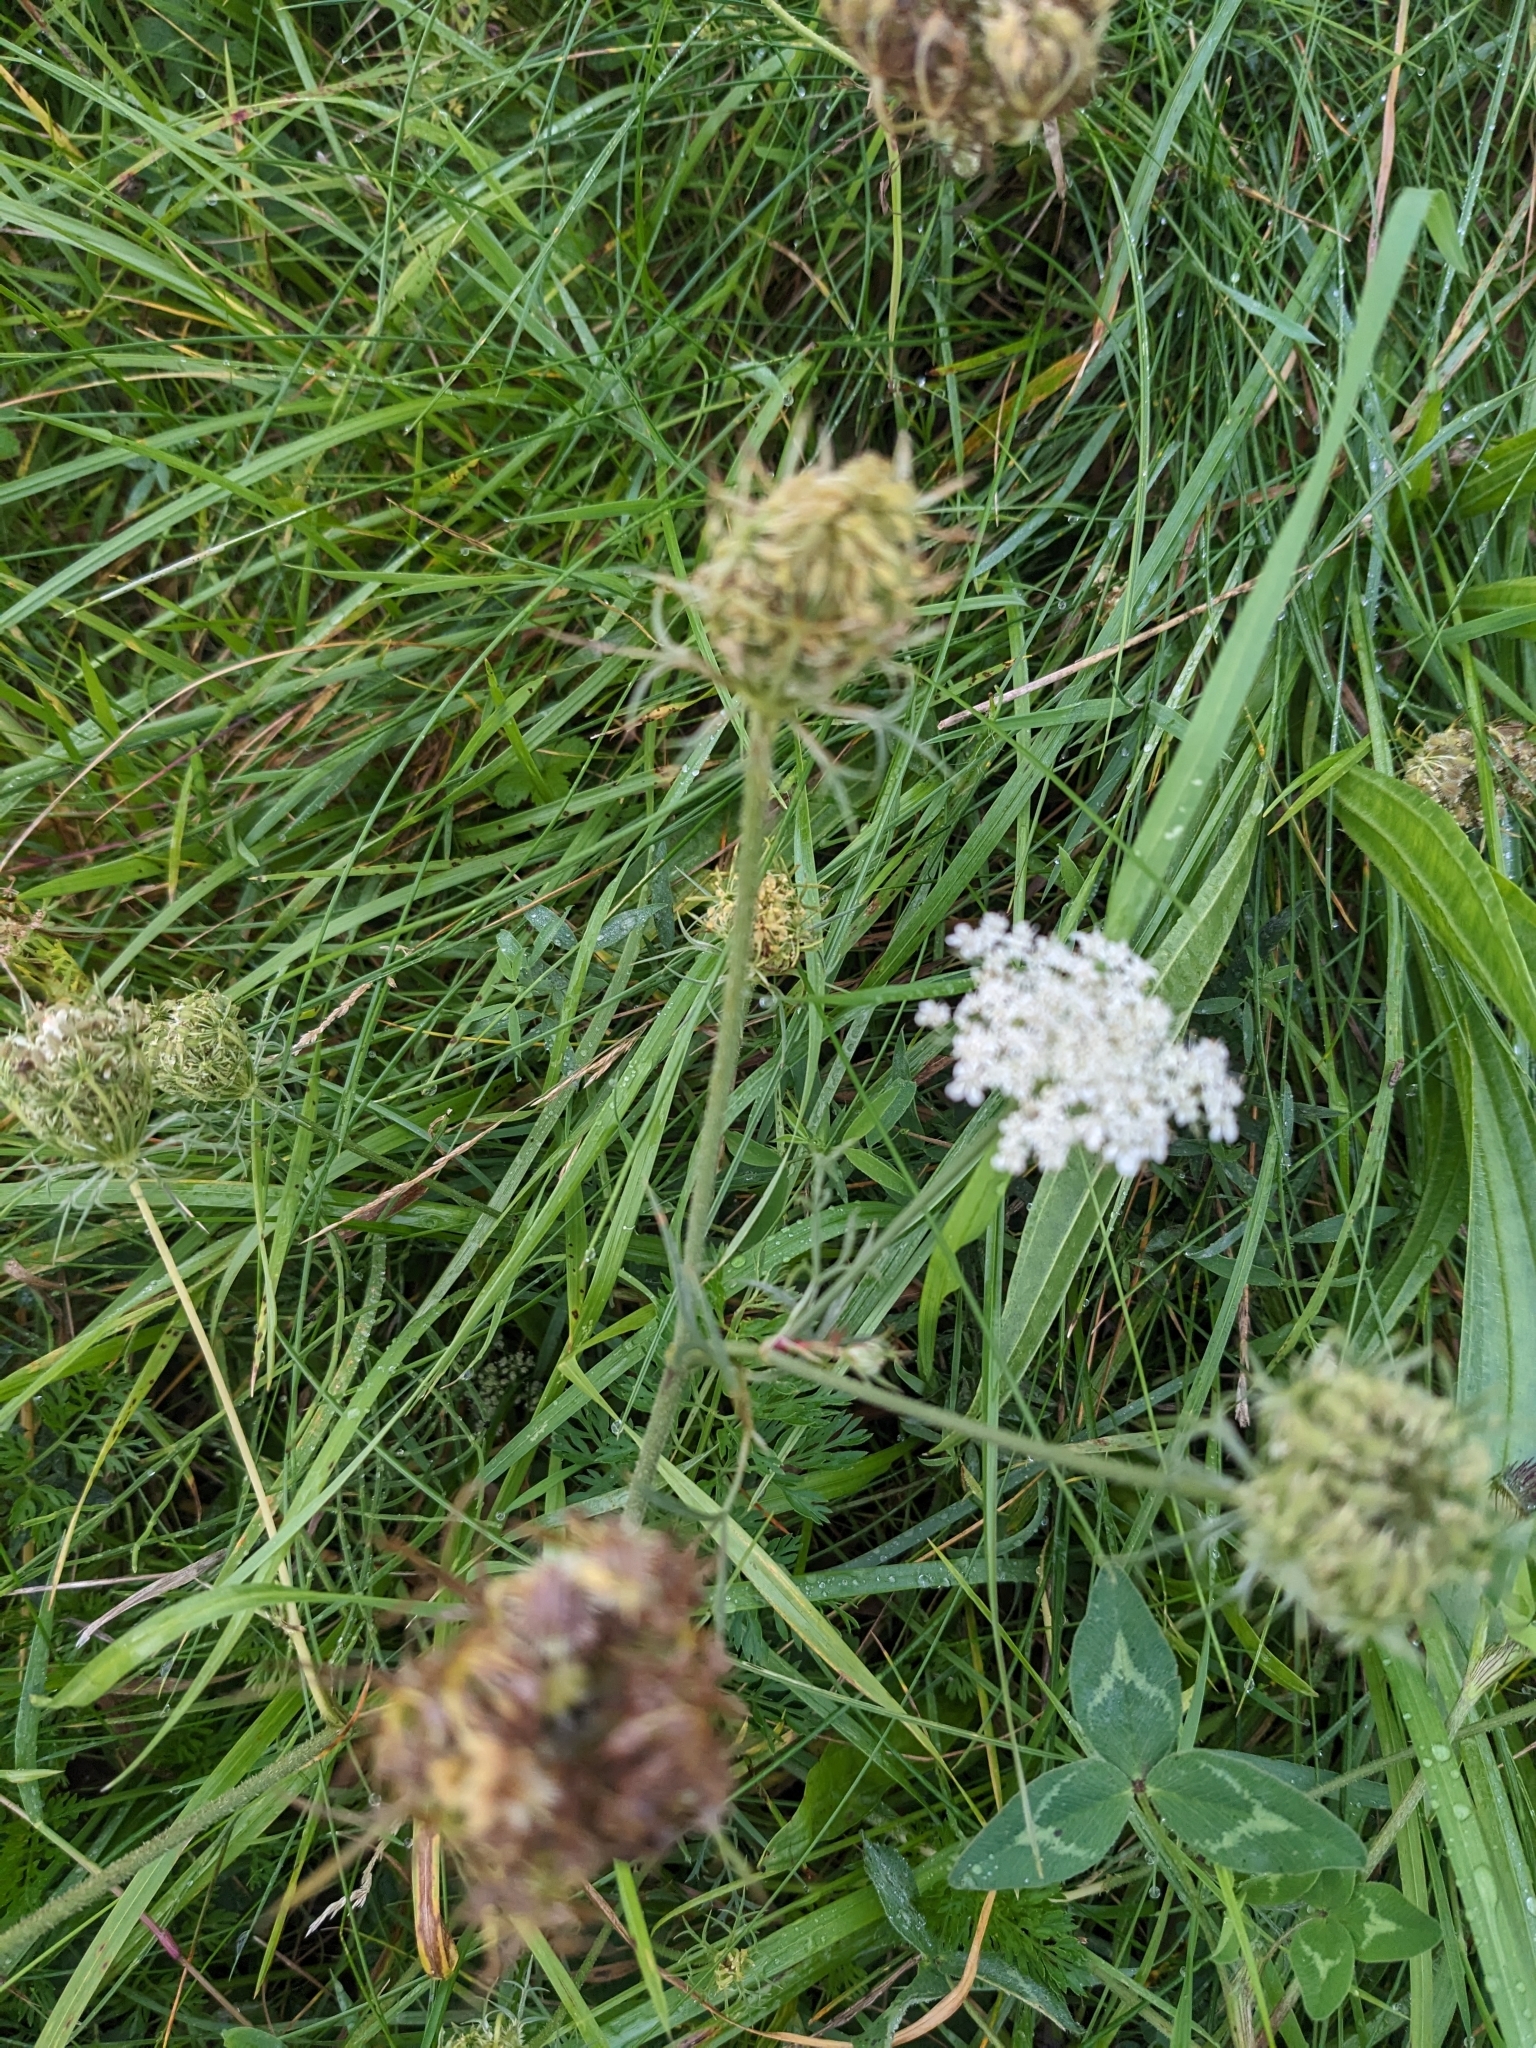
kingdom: Plantae
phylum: Tracheophyta
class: Magnoliopsida
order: Apiales
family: Apiaceae
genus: Daucus
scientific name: Daucus carota
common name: Wild carrot
